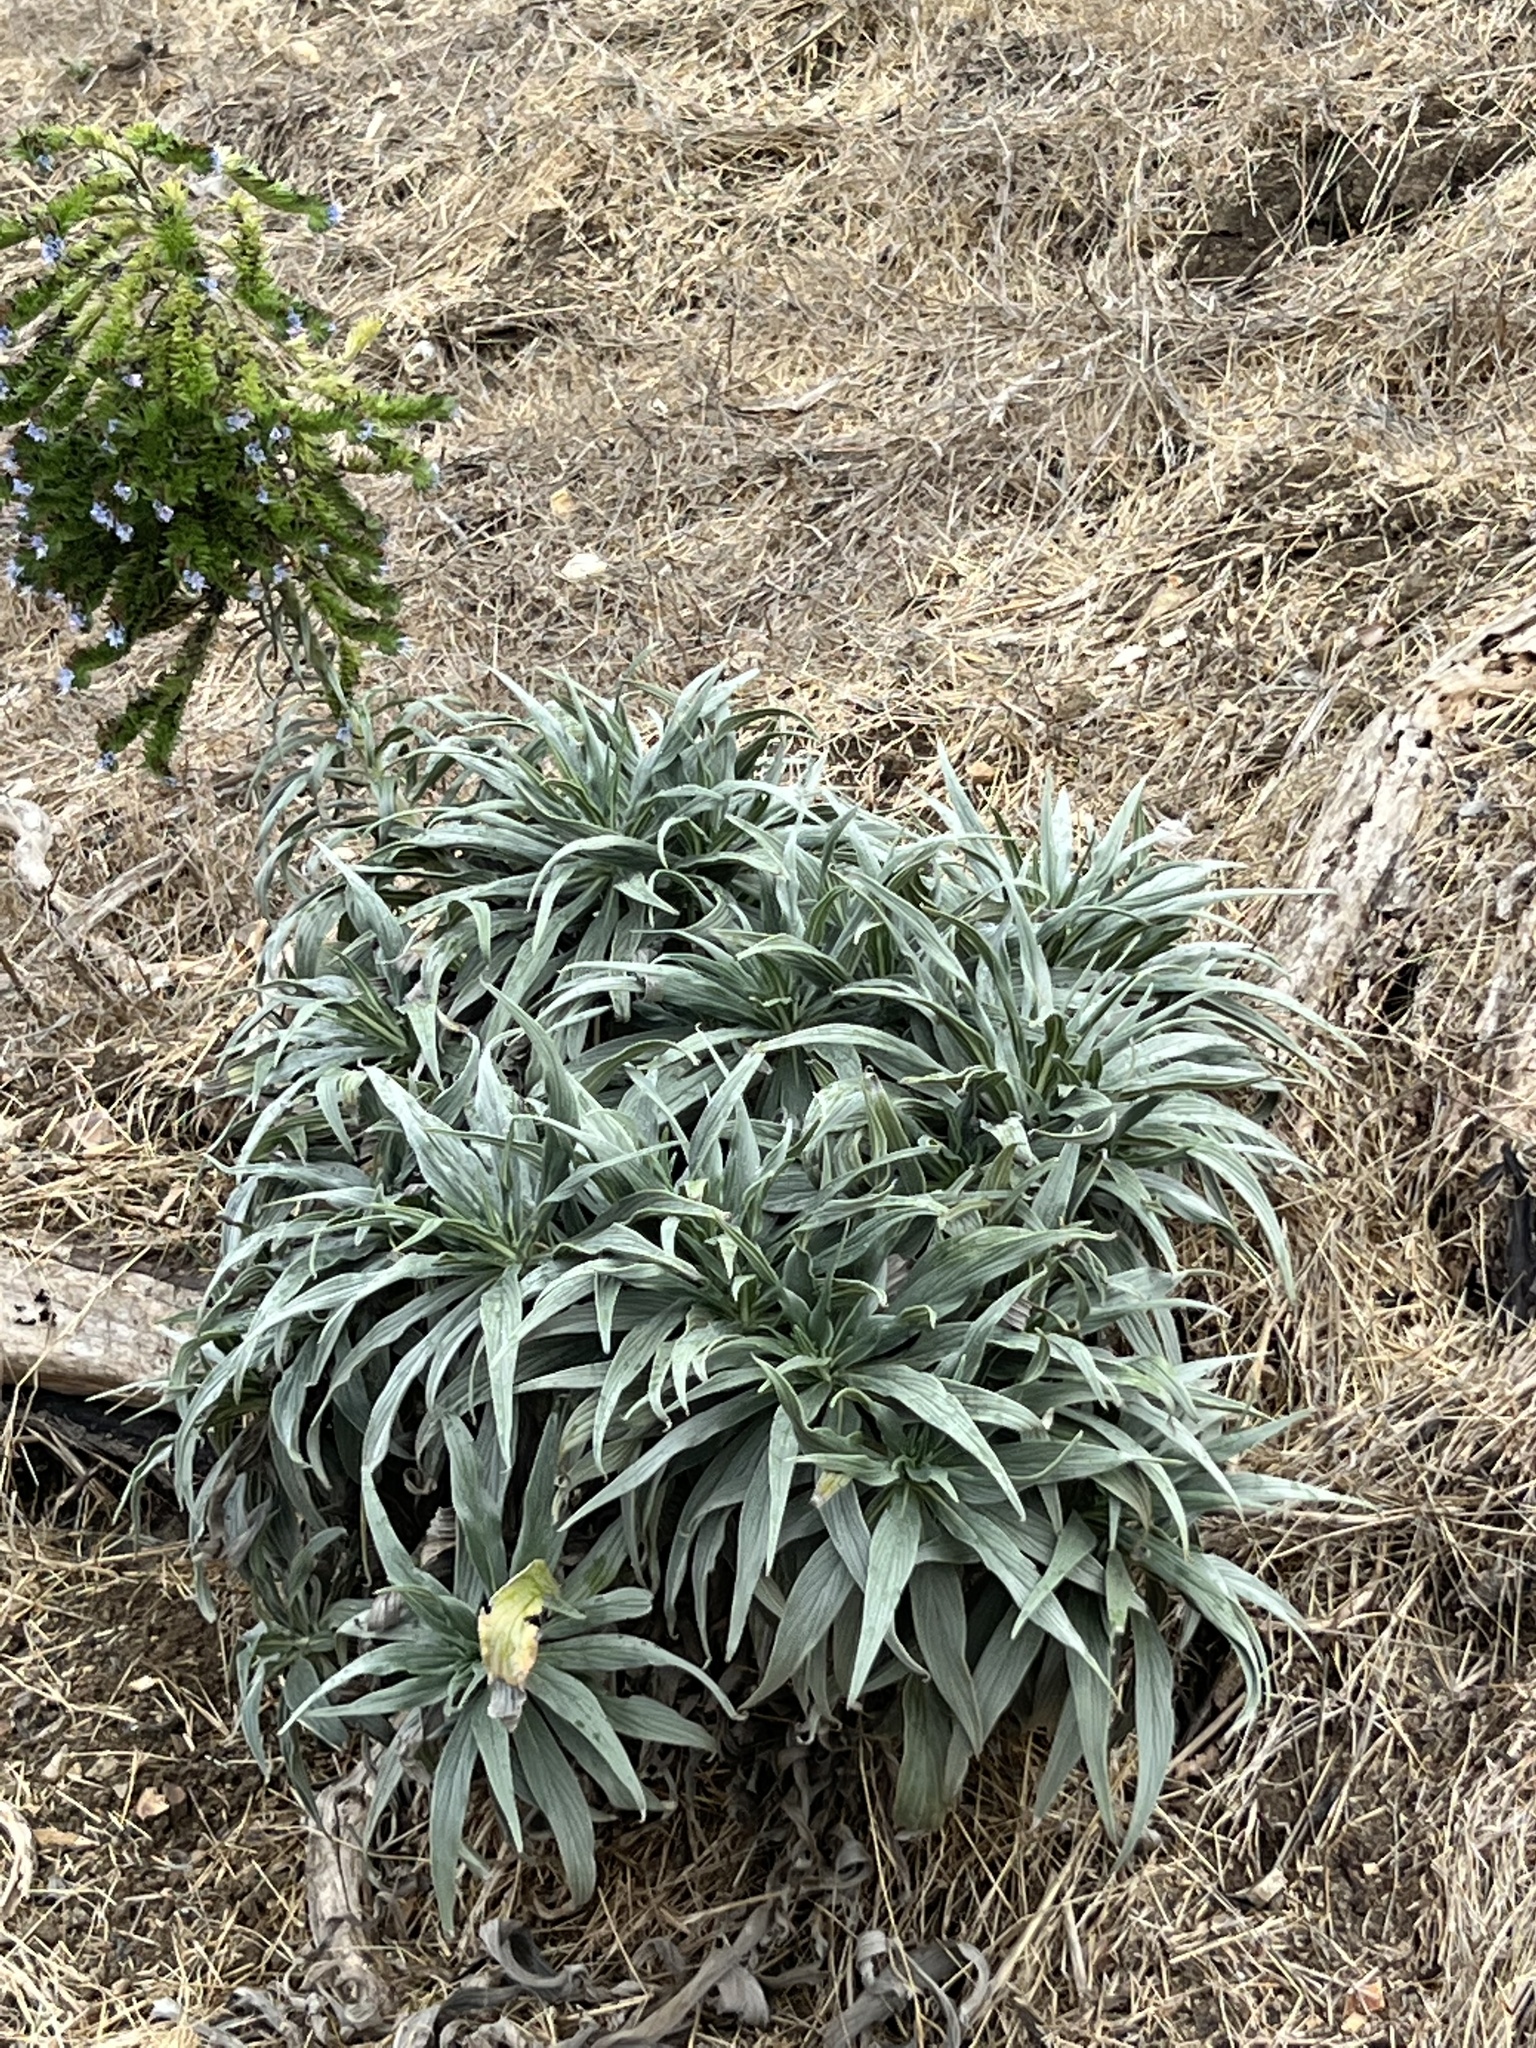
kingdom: Plantae
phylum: Tracheophyta
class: Magnoliopsida
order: Boraginales
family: Boraginaceae
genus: Echium
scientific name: Echium candicans
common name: Pride of madeira
